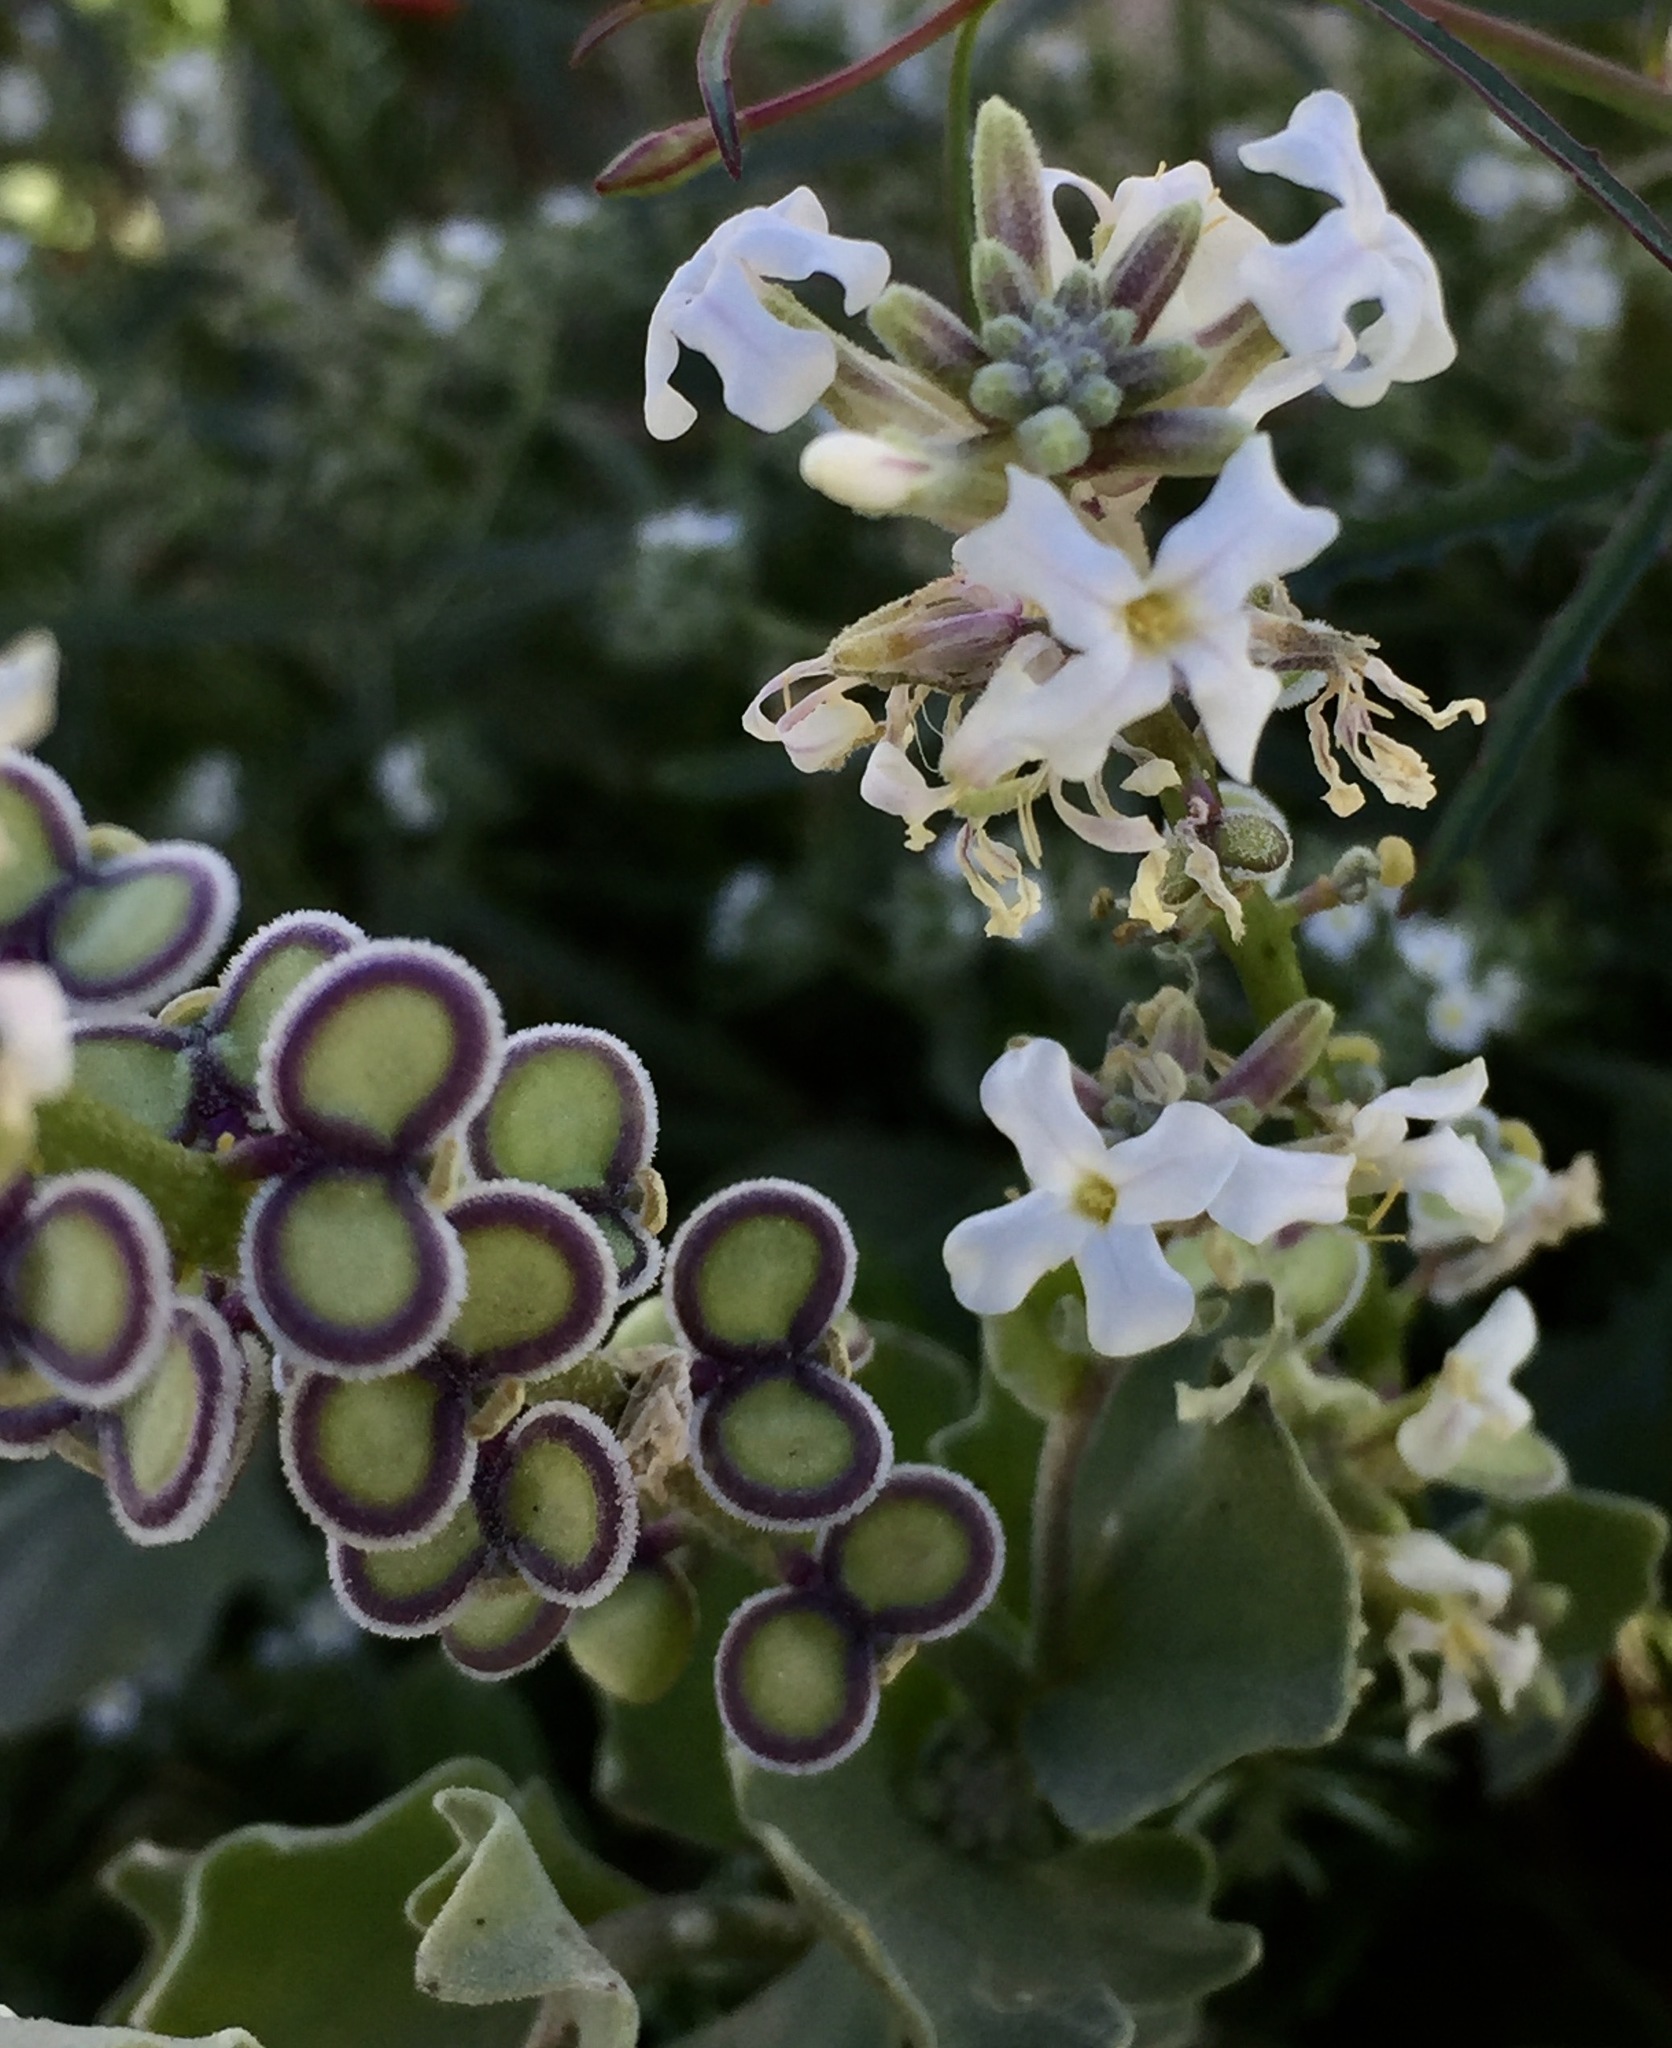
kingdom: Plantae
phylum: Tracheophyta
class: Magnoliopsida
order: Brassicales
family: Brassicaceae
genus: Dithyrea
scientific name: Dithyrea californica
